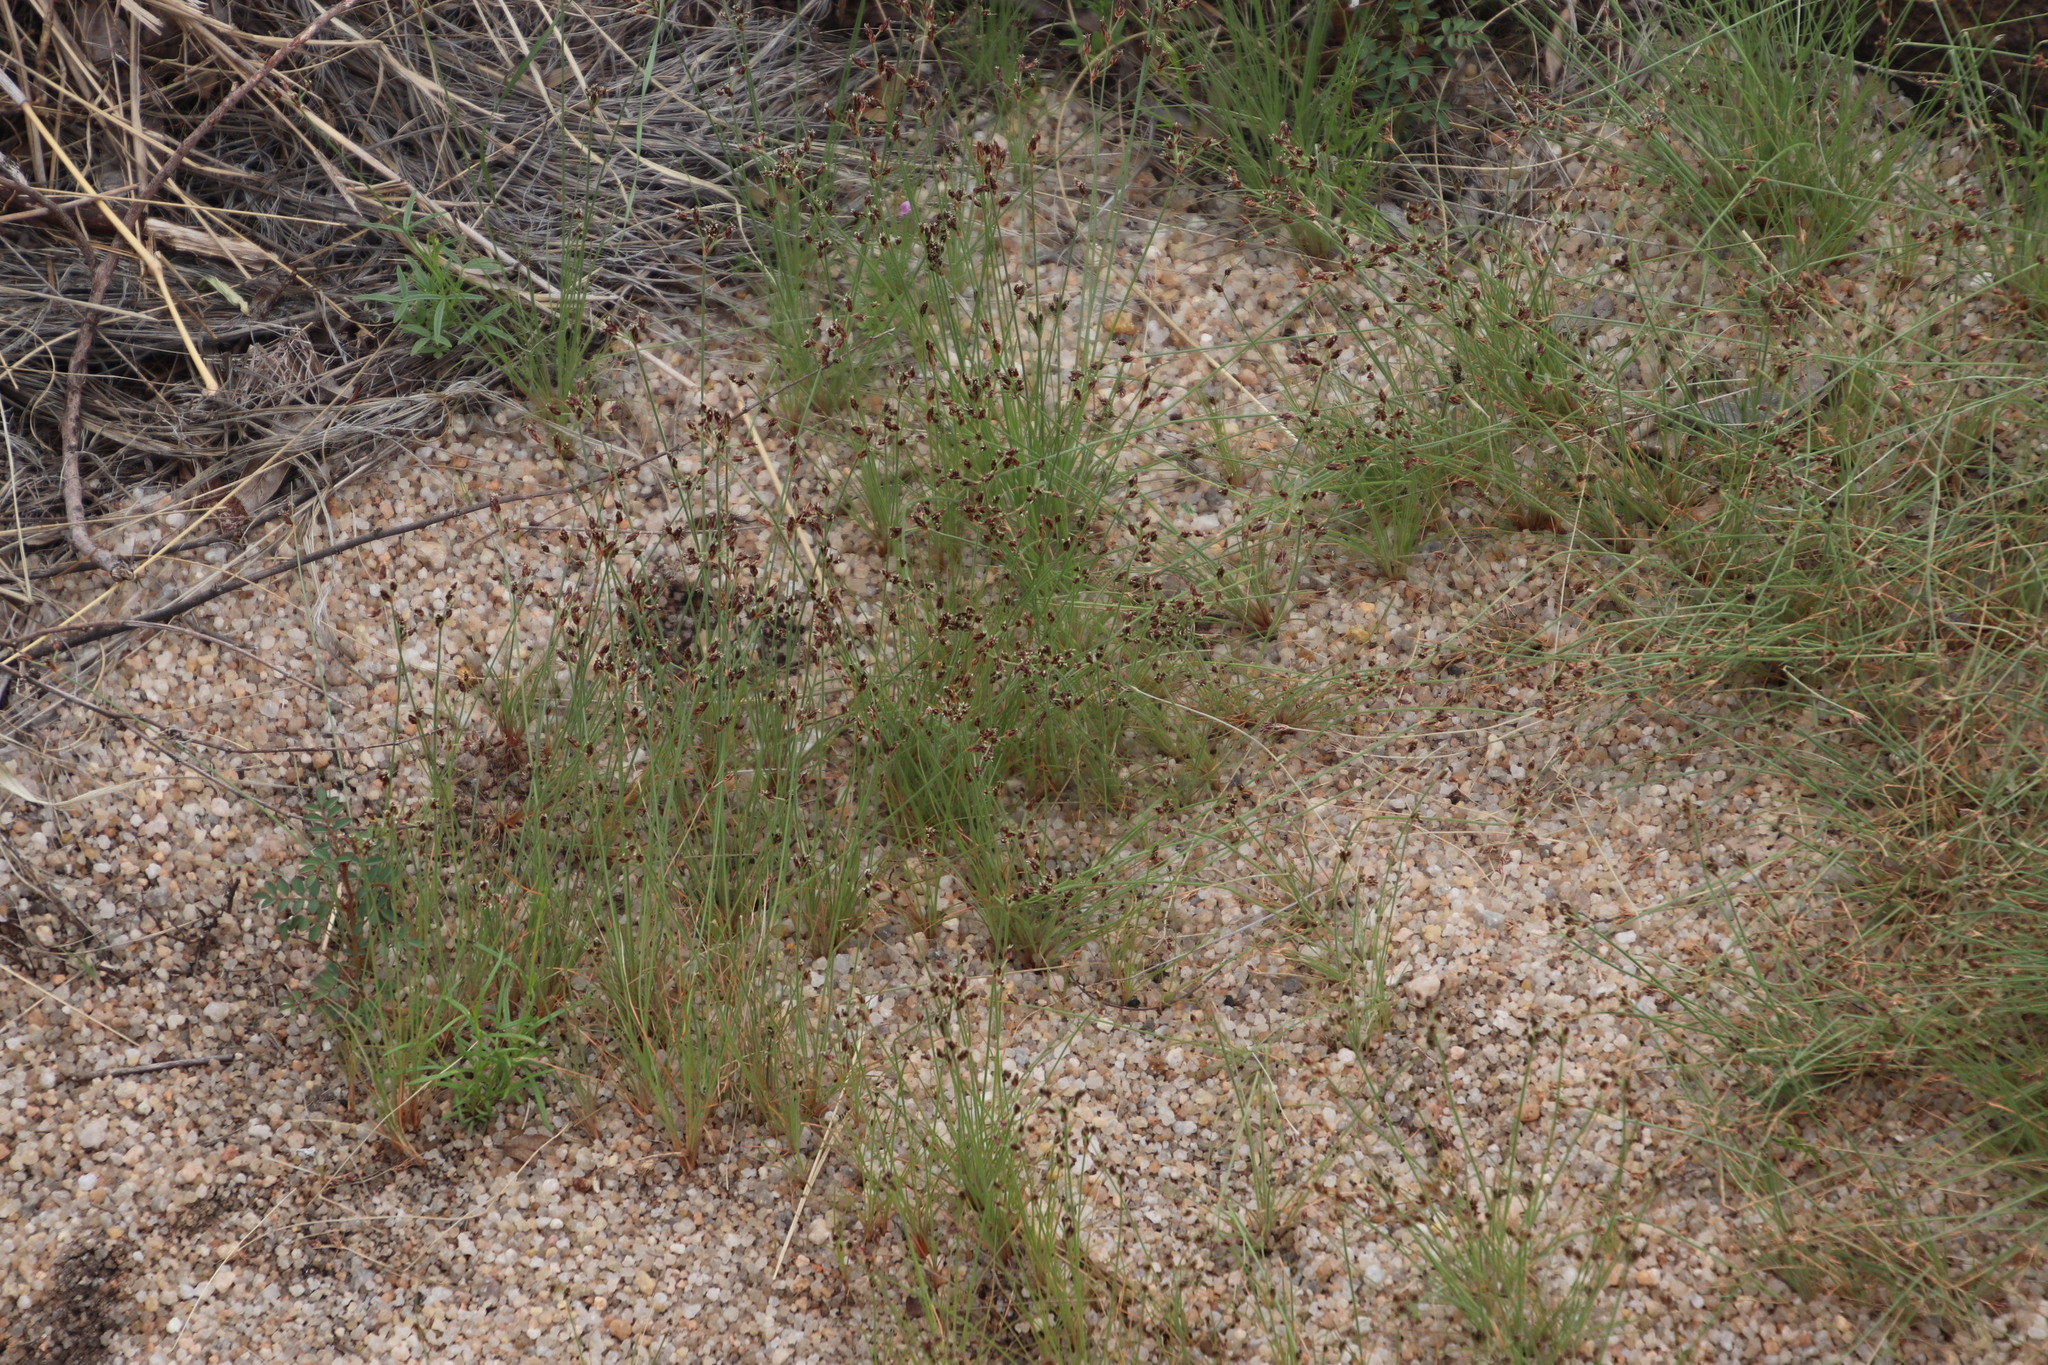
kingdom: Plantae
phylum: Tracheophyta
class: Liliopsida
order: Poales
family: Cyperaceae
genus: Bulbostylis
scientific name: Bulbostylis hispidula
